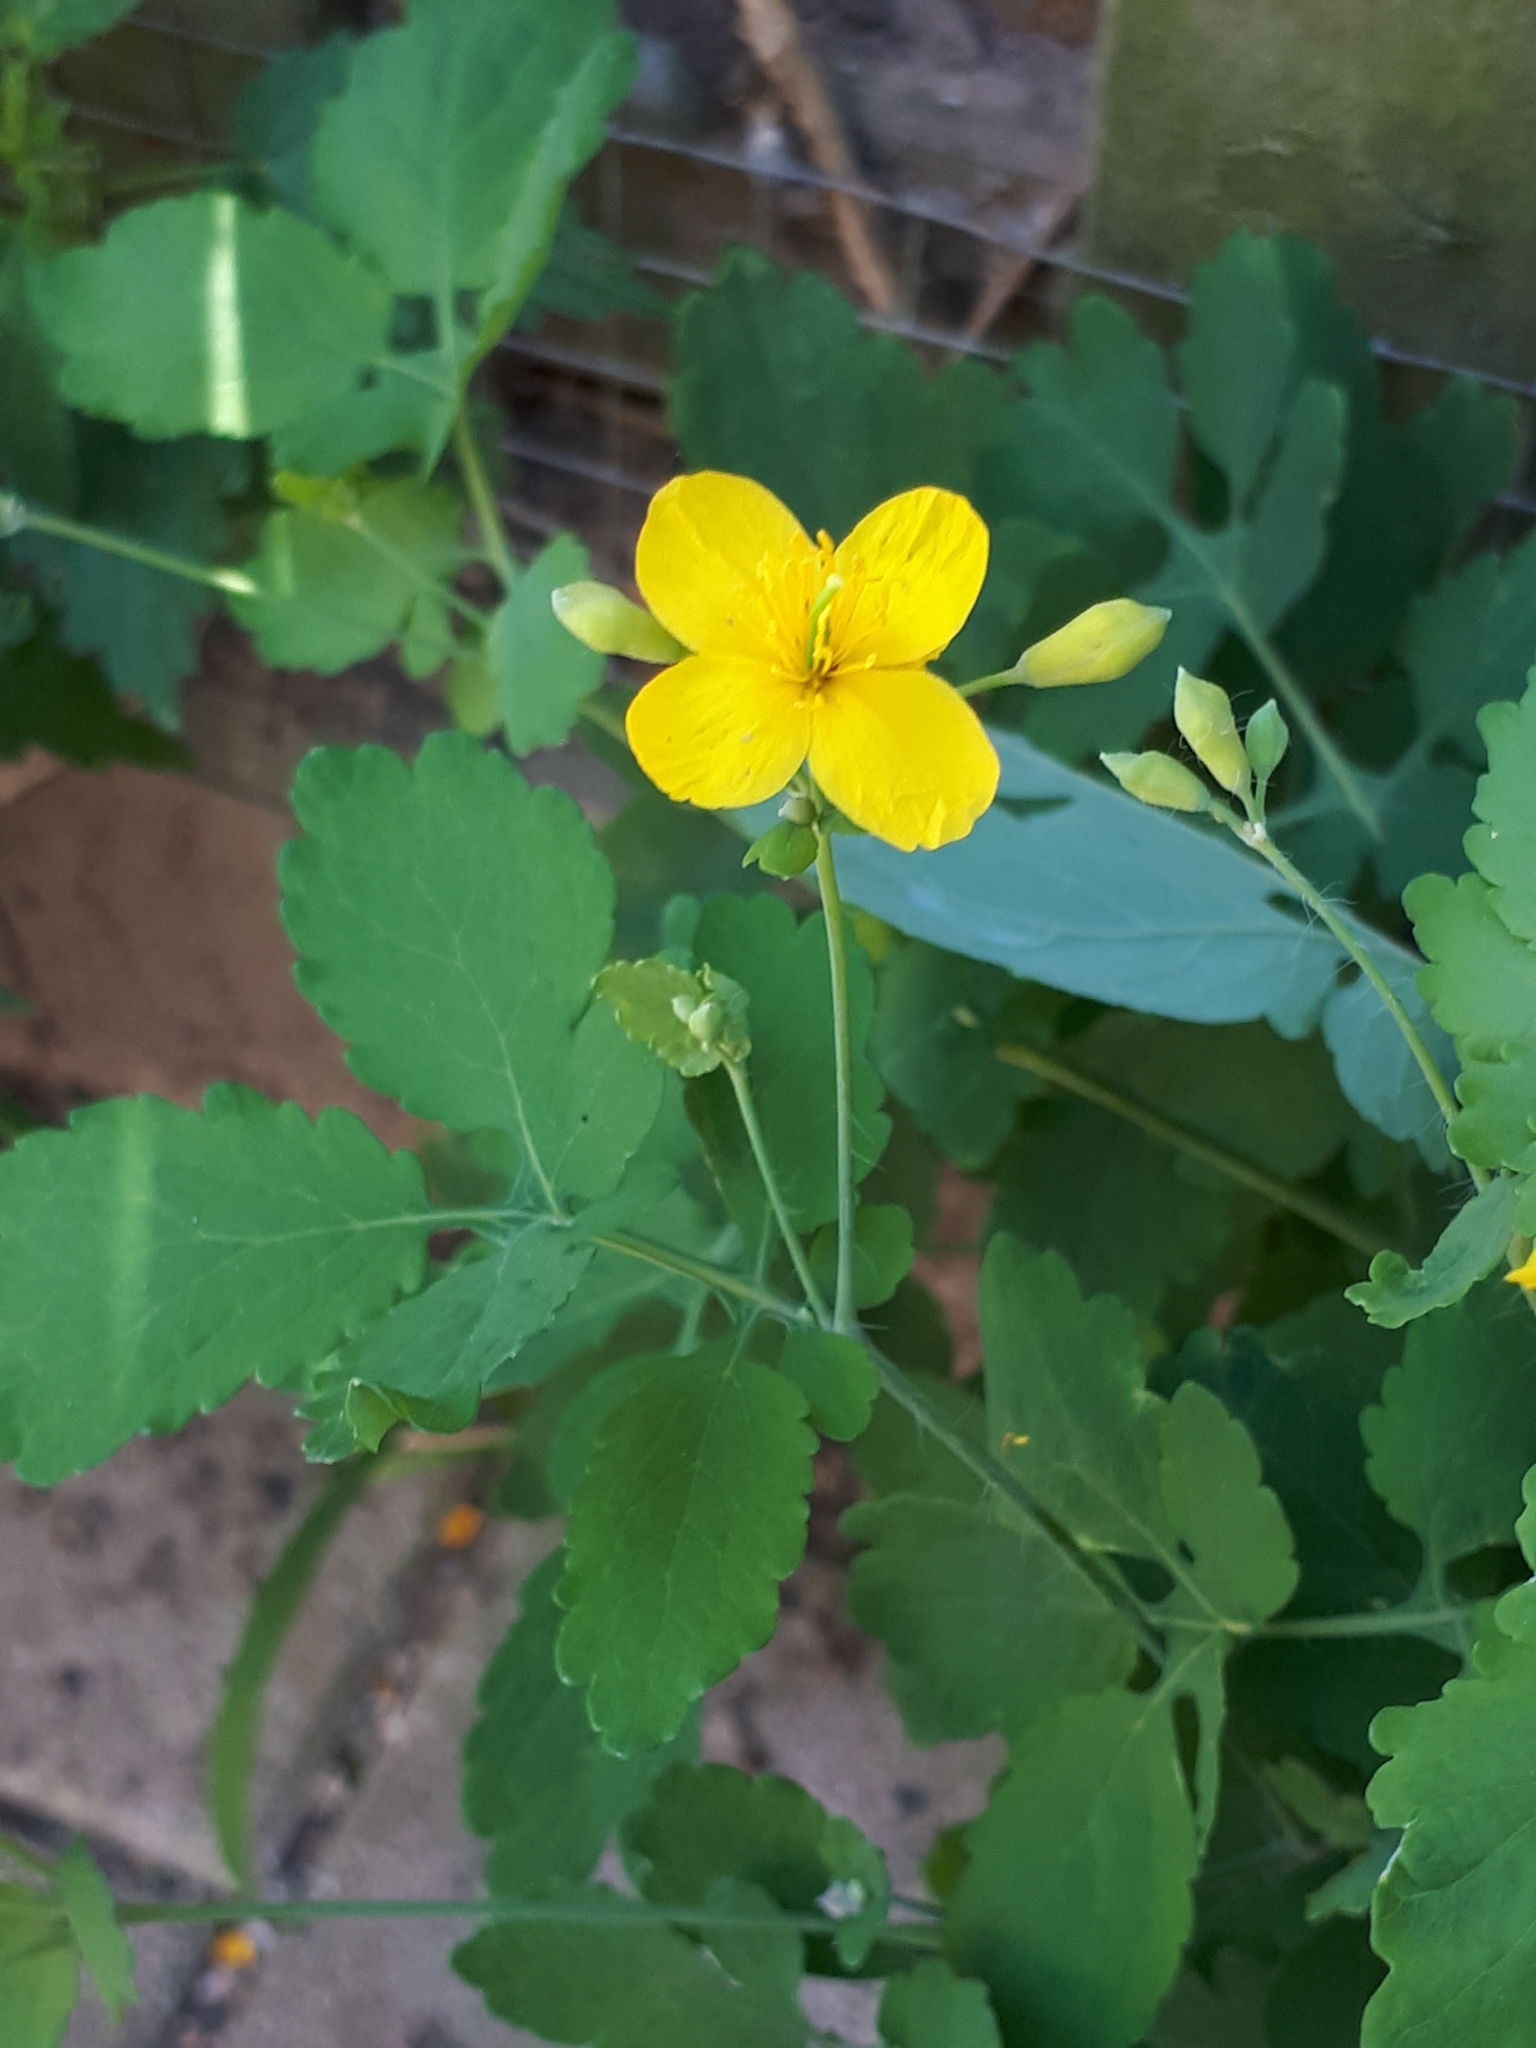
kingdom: Plantae
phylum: Tracheophyta
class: Magnoliopsida
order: Ranunculales
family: Papaveraceae
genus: Chelidonium
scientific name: Chelidonium majus
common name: Greater celandine
